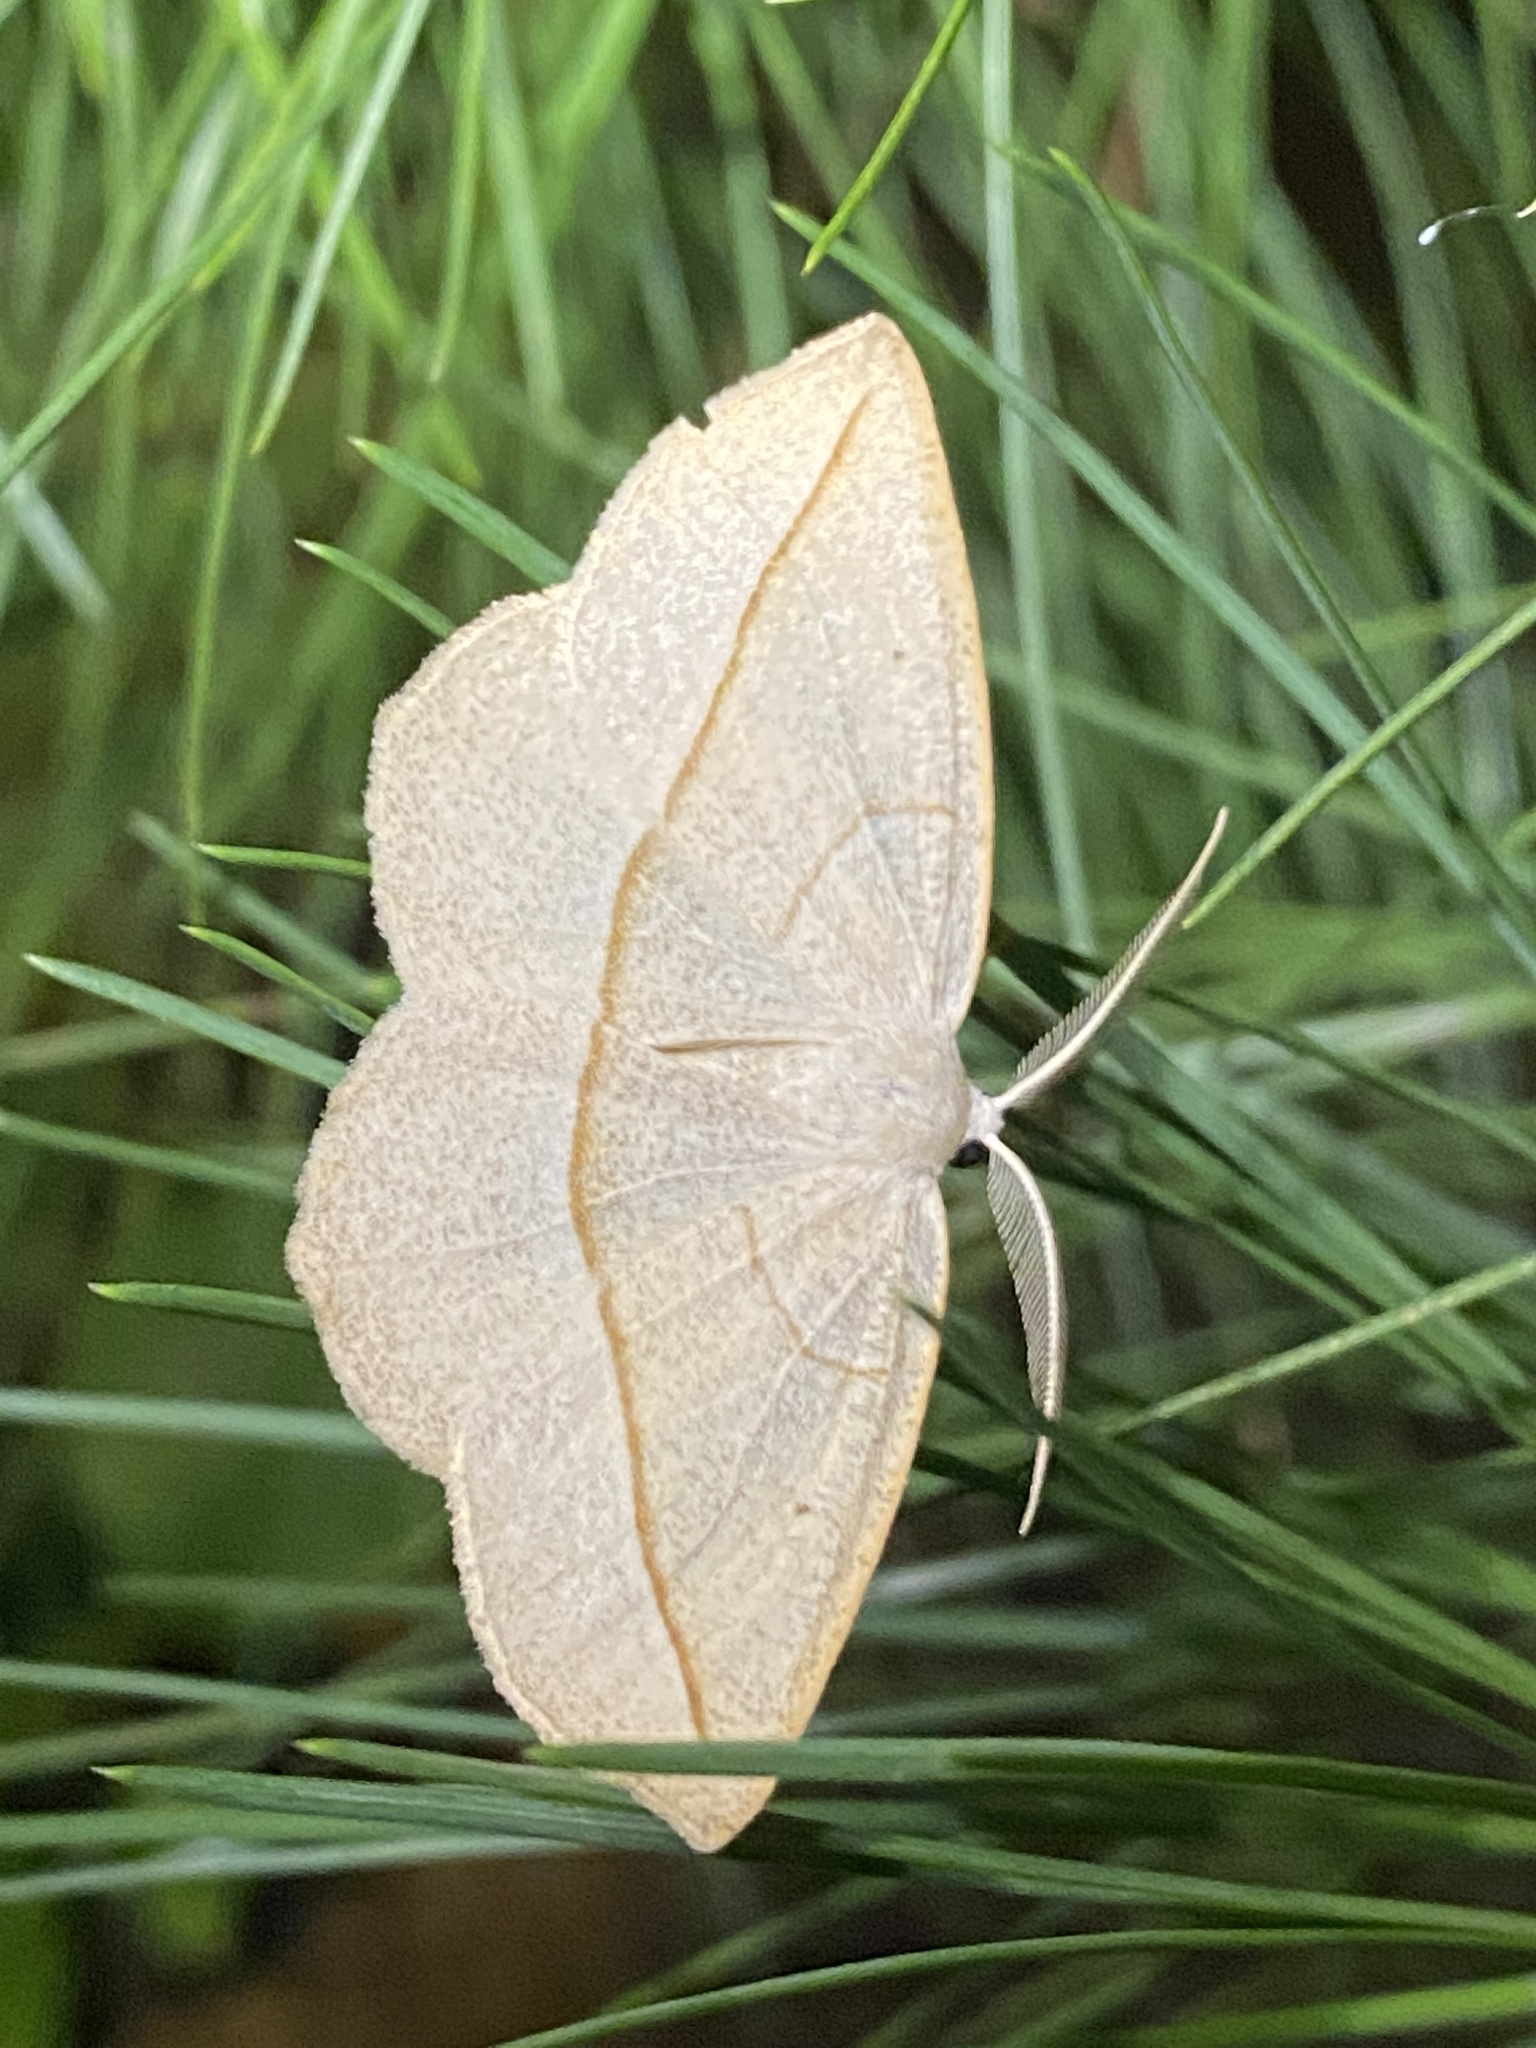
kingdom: Animalia
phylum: Arthropoda
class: Insecta
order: Lepidoptera
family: Geometridae
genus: Eusarca
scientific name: Eusarca confusaria
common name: Confused eusarca
